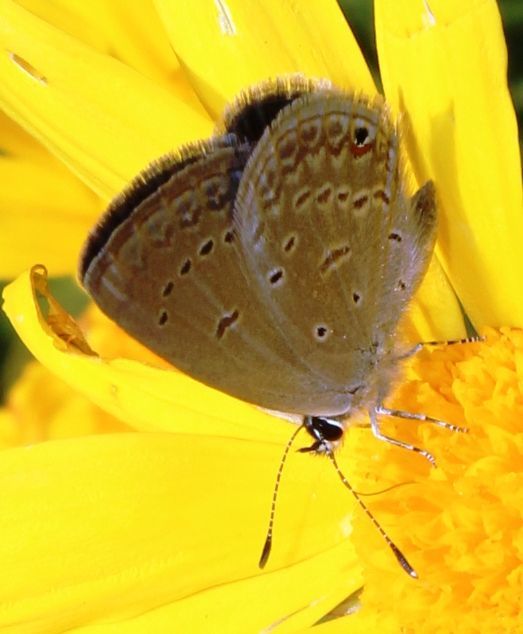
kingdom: Animalia
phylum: Arthropoda
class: Insecta
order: Lepidoptera
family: Lycaenidae
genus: Eicochrysops
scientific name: Eicochrysops messapus
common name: Cupreous blue
